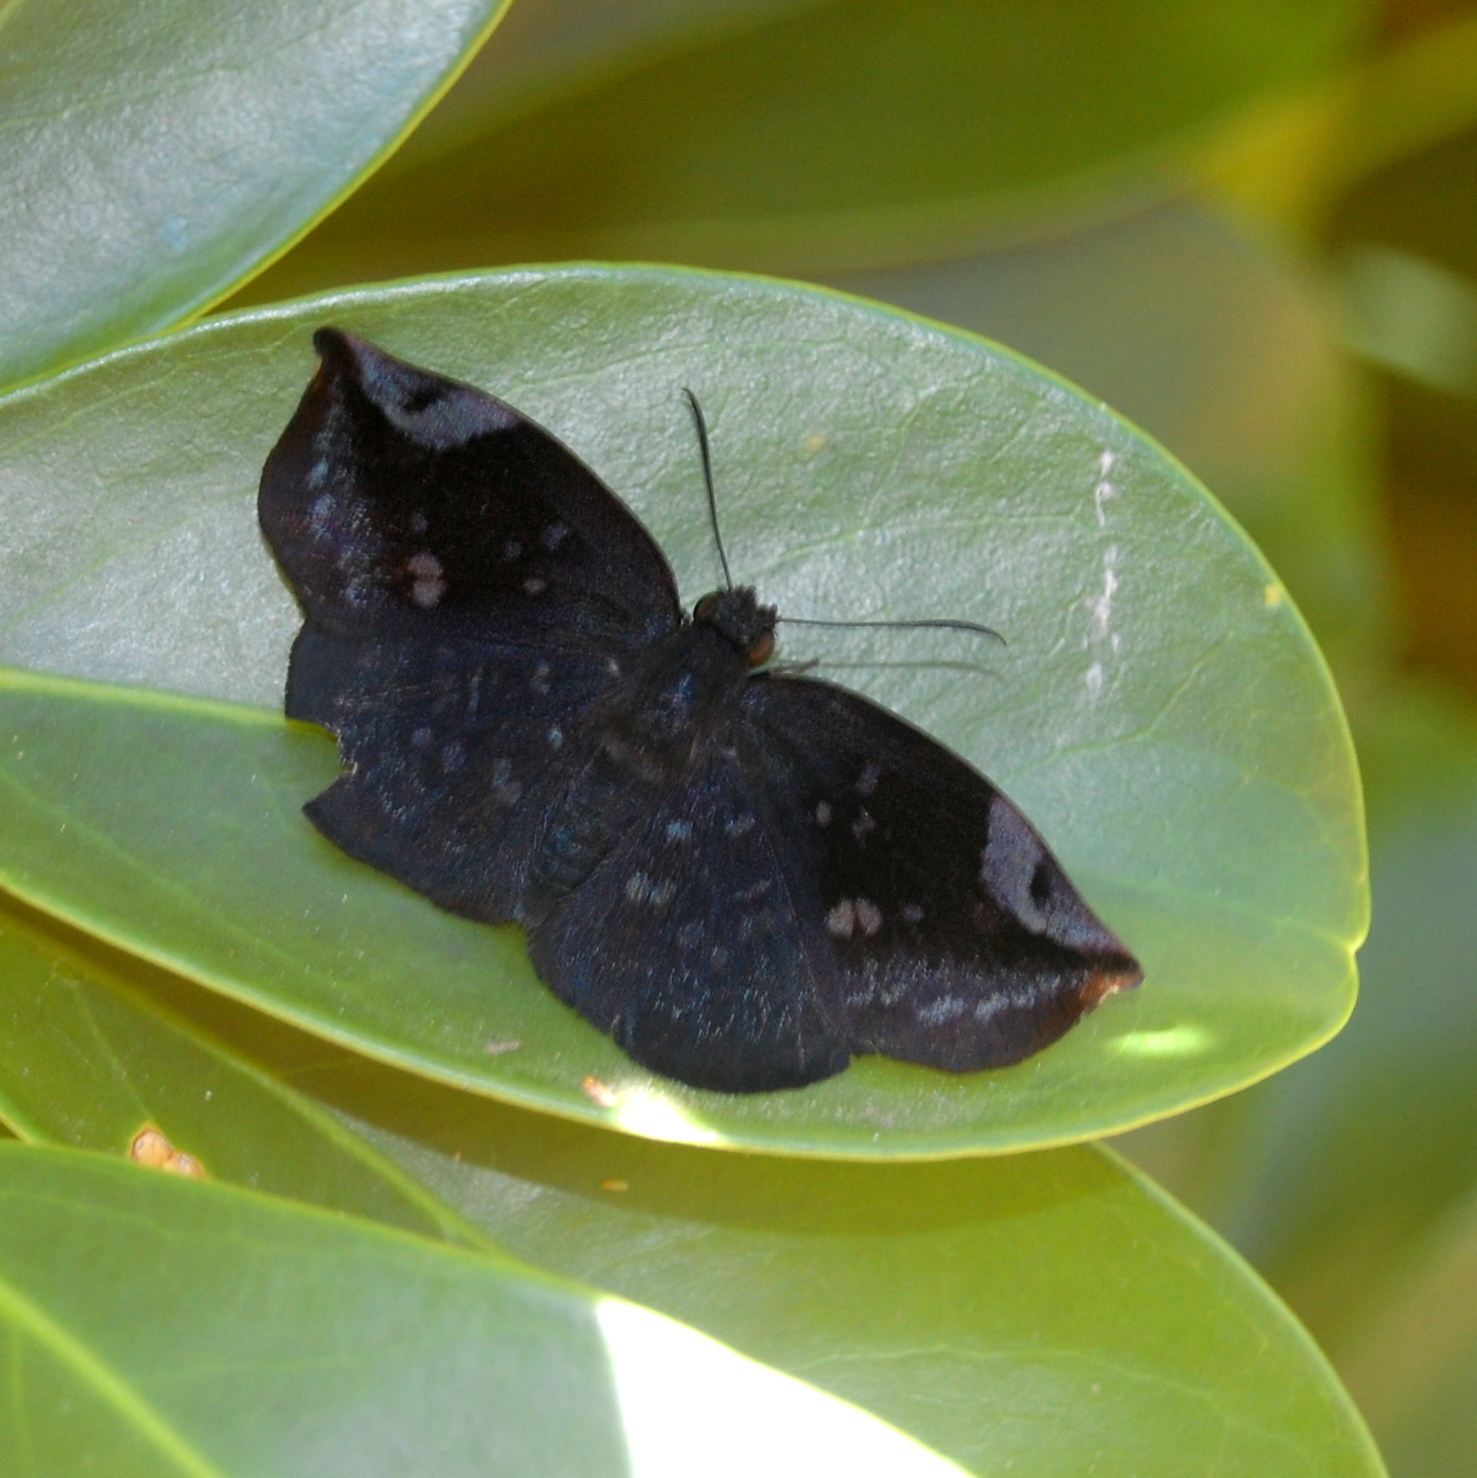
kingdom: Animalia
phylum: Arthropoda
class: Insecta
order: Lepidoptera
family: Hesperiidae
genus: Achlyodes
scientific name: Achlyodes thraso
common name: Sickle-winged skipper
